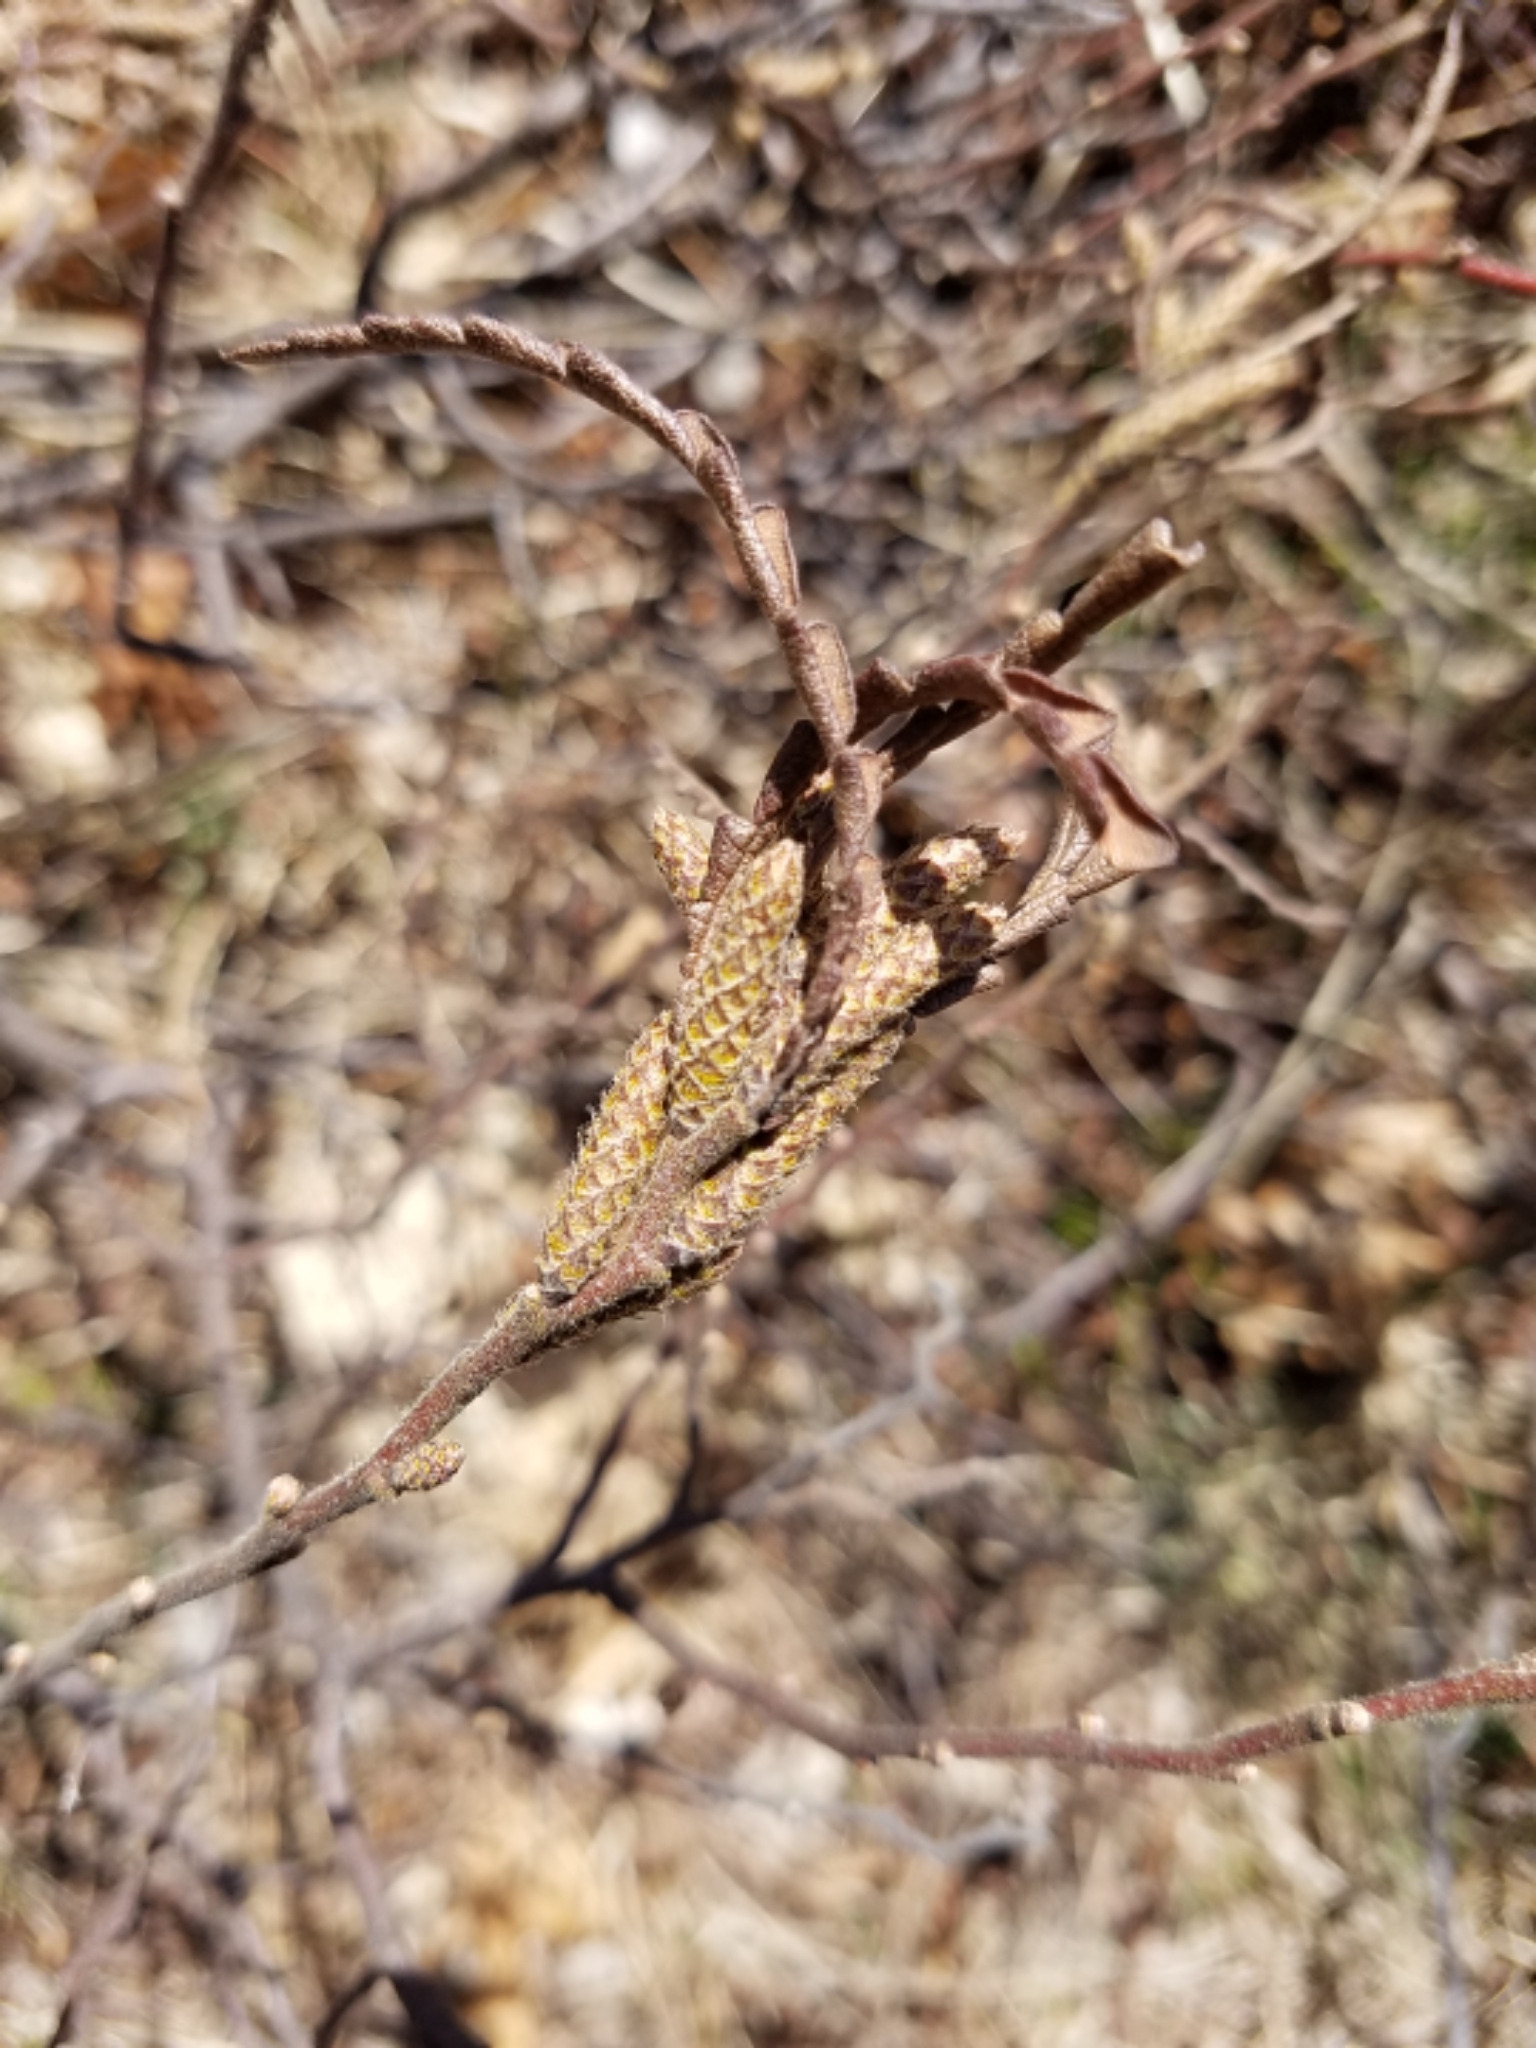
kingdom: Plantae
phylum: Tracheophyta
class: Magnoliopsida
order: Fagales
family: Myricaceae
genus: Comptonia
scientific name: Comptonia peregrina
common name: Sweet-fern
